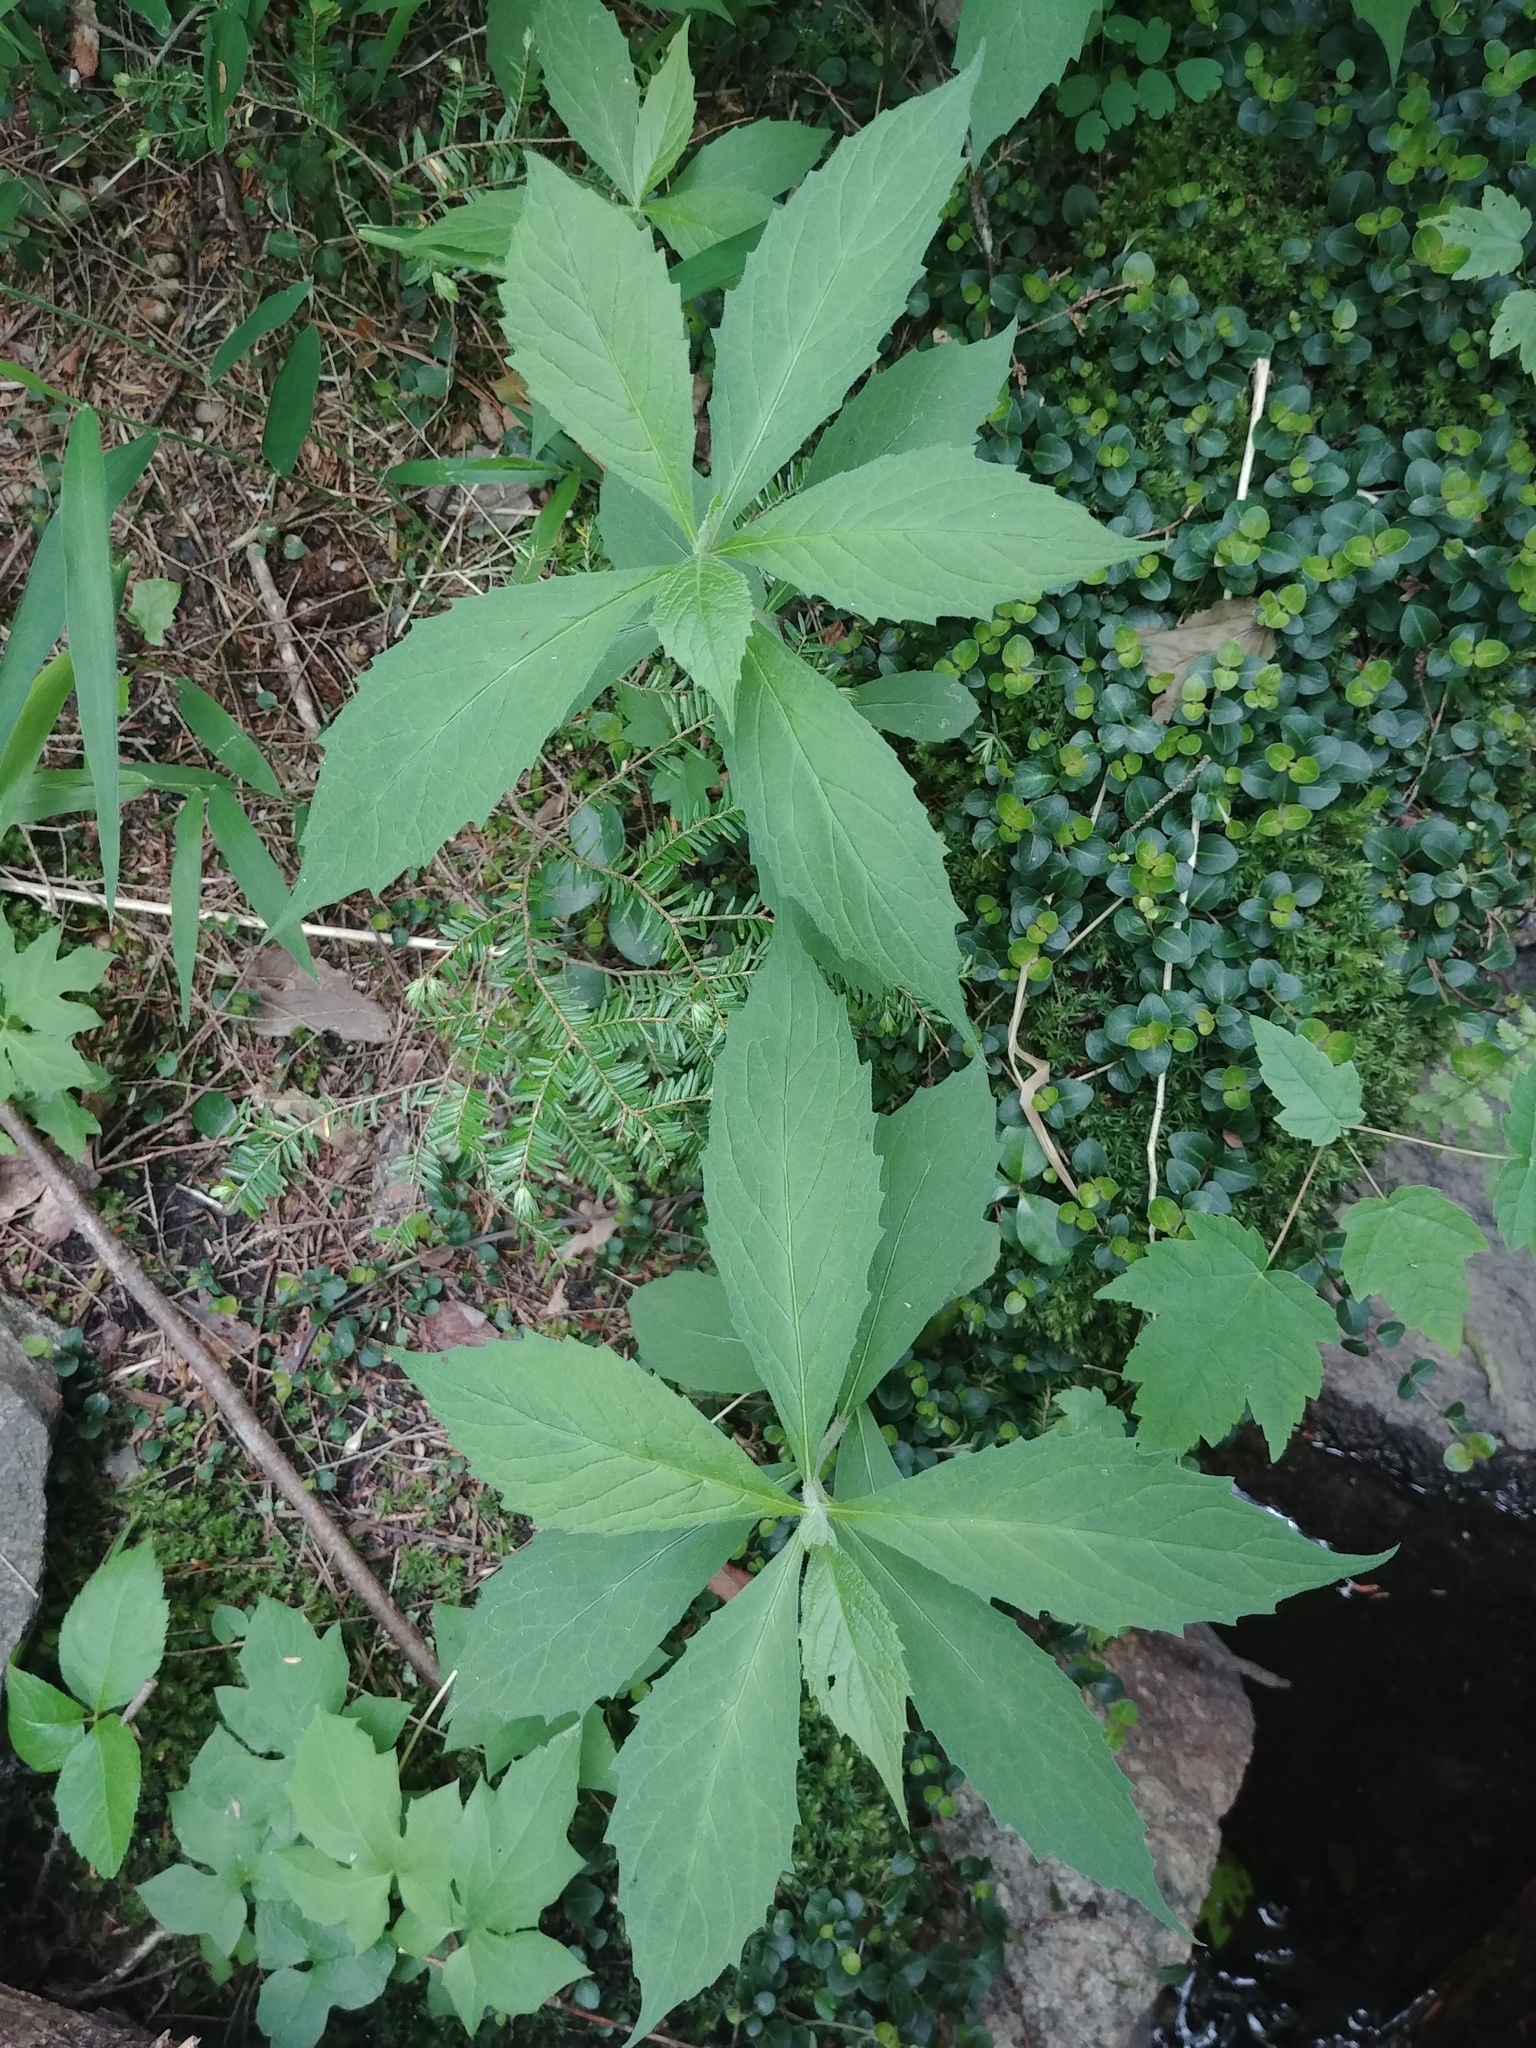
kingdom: Plantae
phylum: Tracheophyta
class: Magnoliopsida
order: Asterales
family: Asteraceae
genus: Oclemena
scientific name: Oclemena acuminata
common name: Mountain aster
